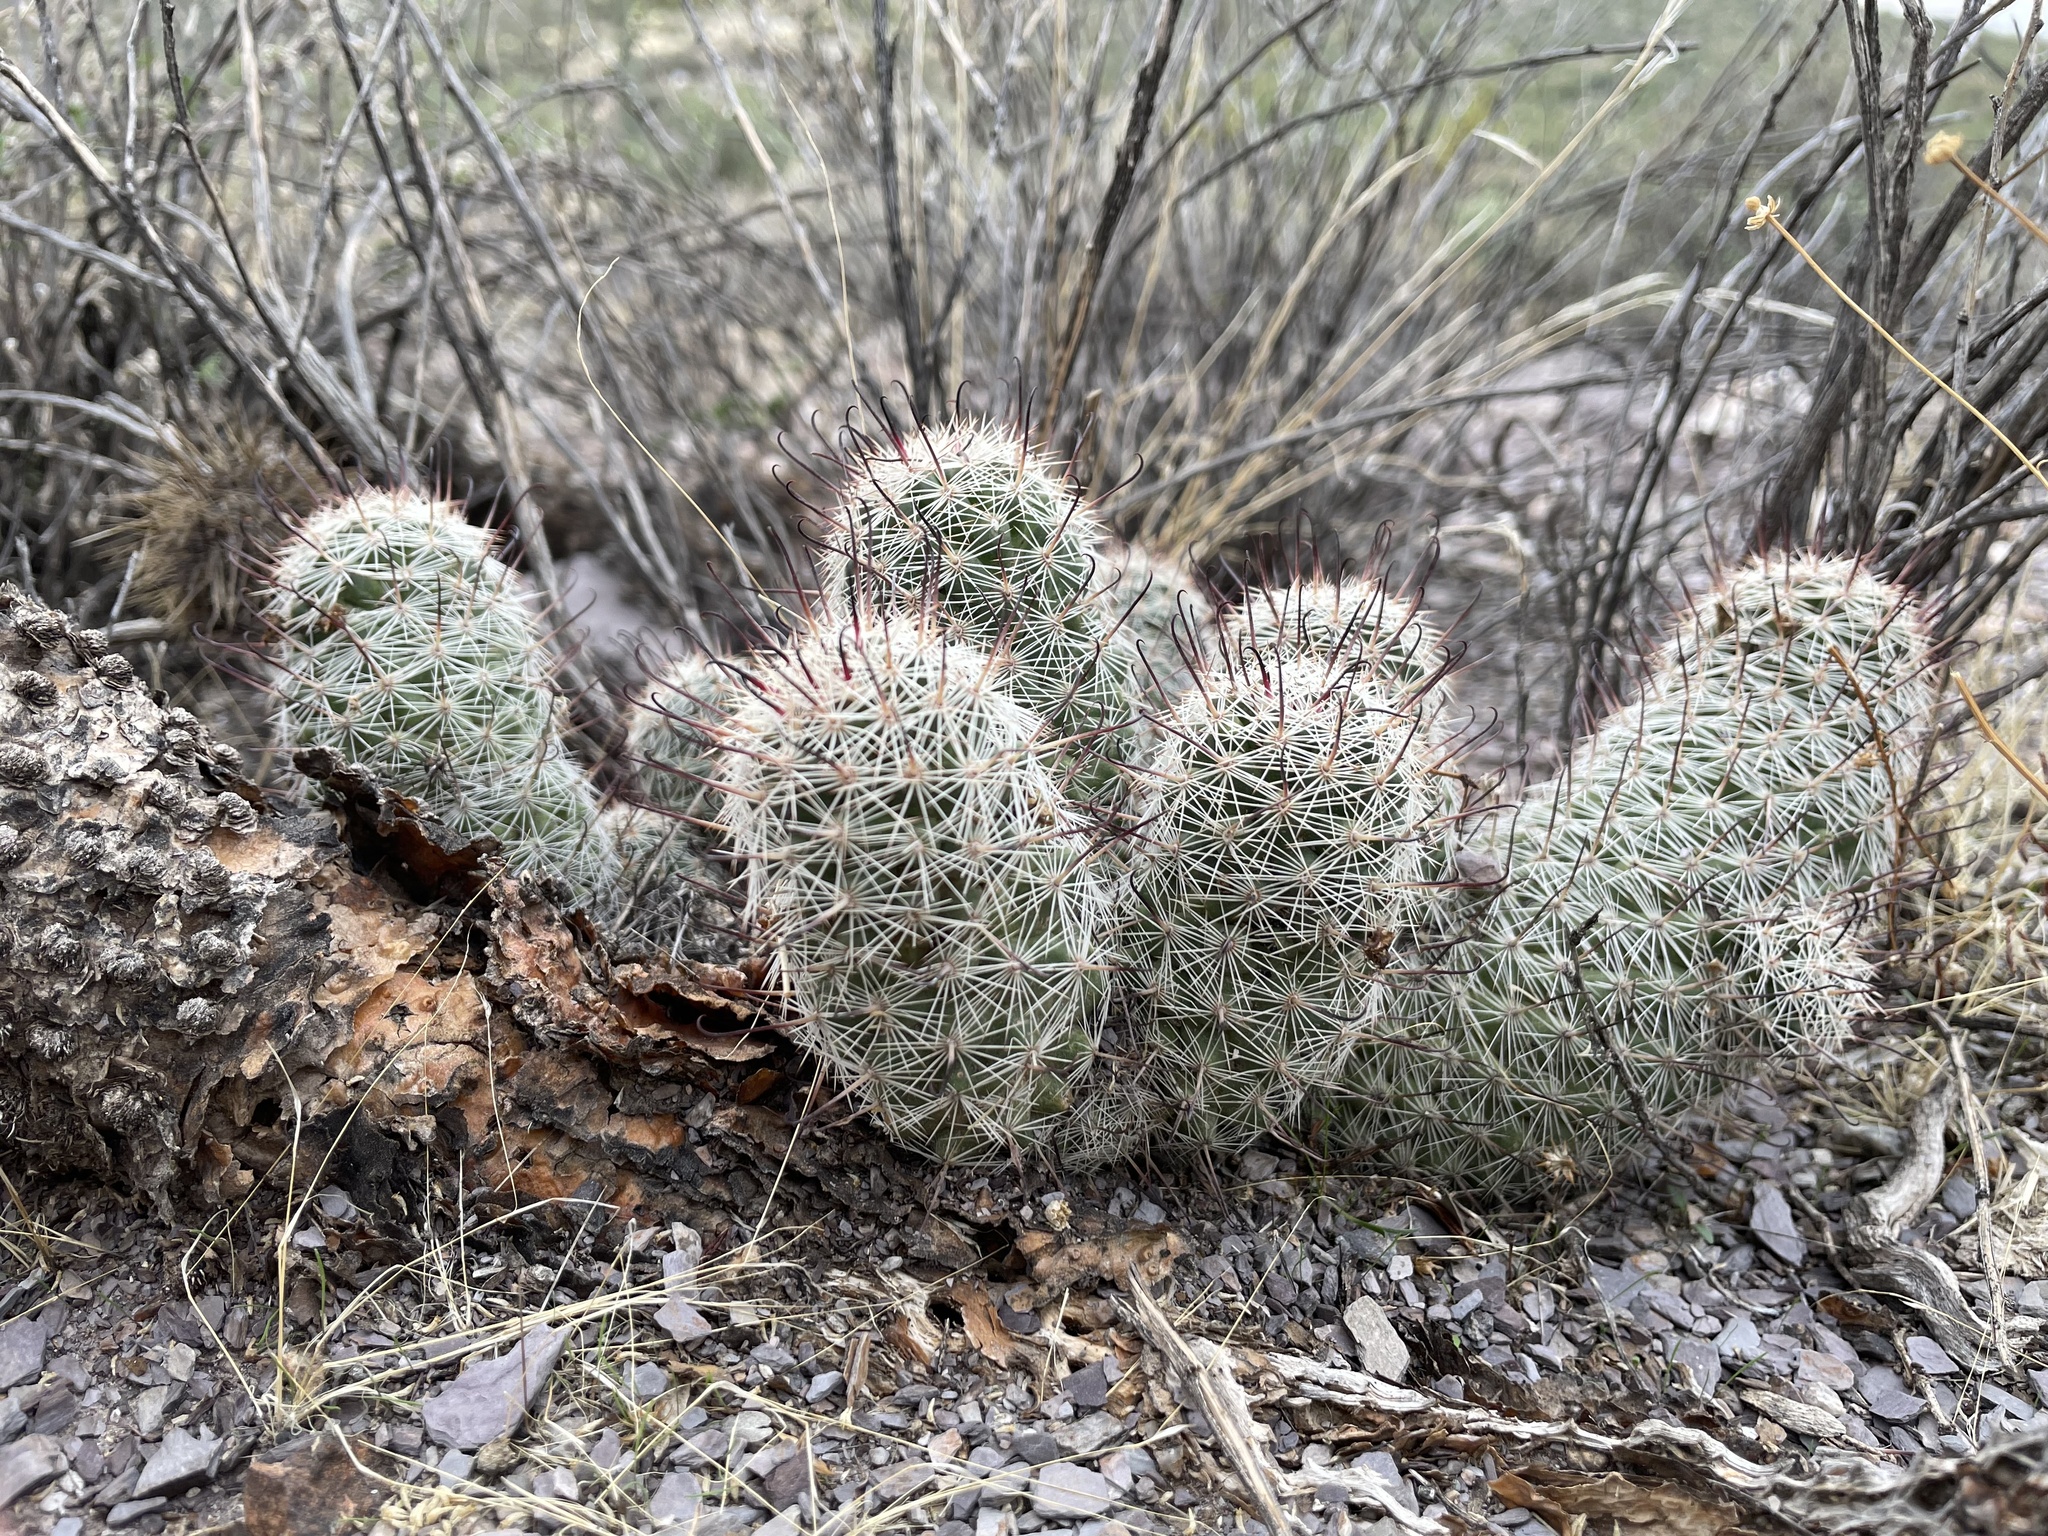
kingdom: Plantae
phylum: Tracheophyta
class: Magnoliopsida
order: Caryophyllales
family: Cactaceae
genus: Cochemiea
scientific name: Cochemiea grahamii
